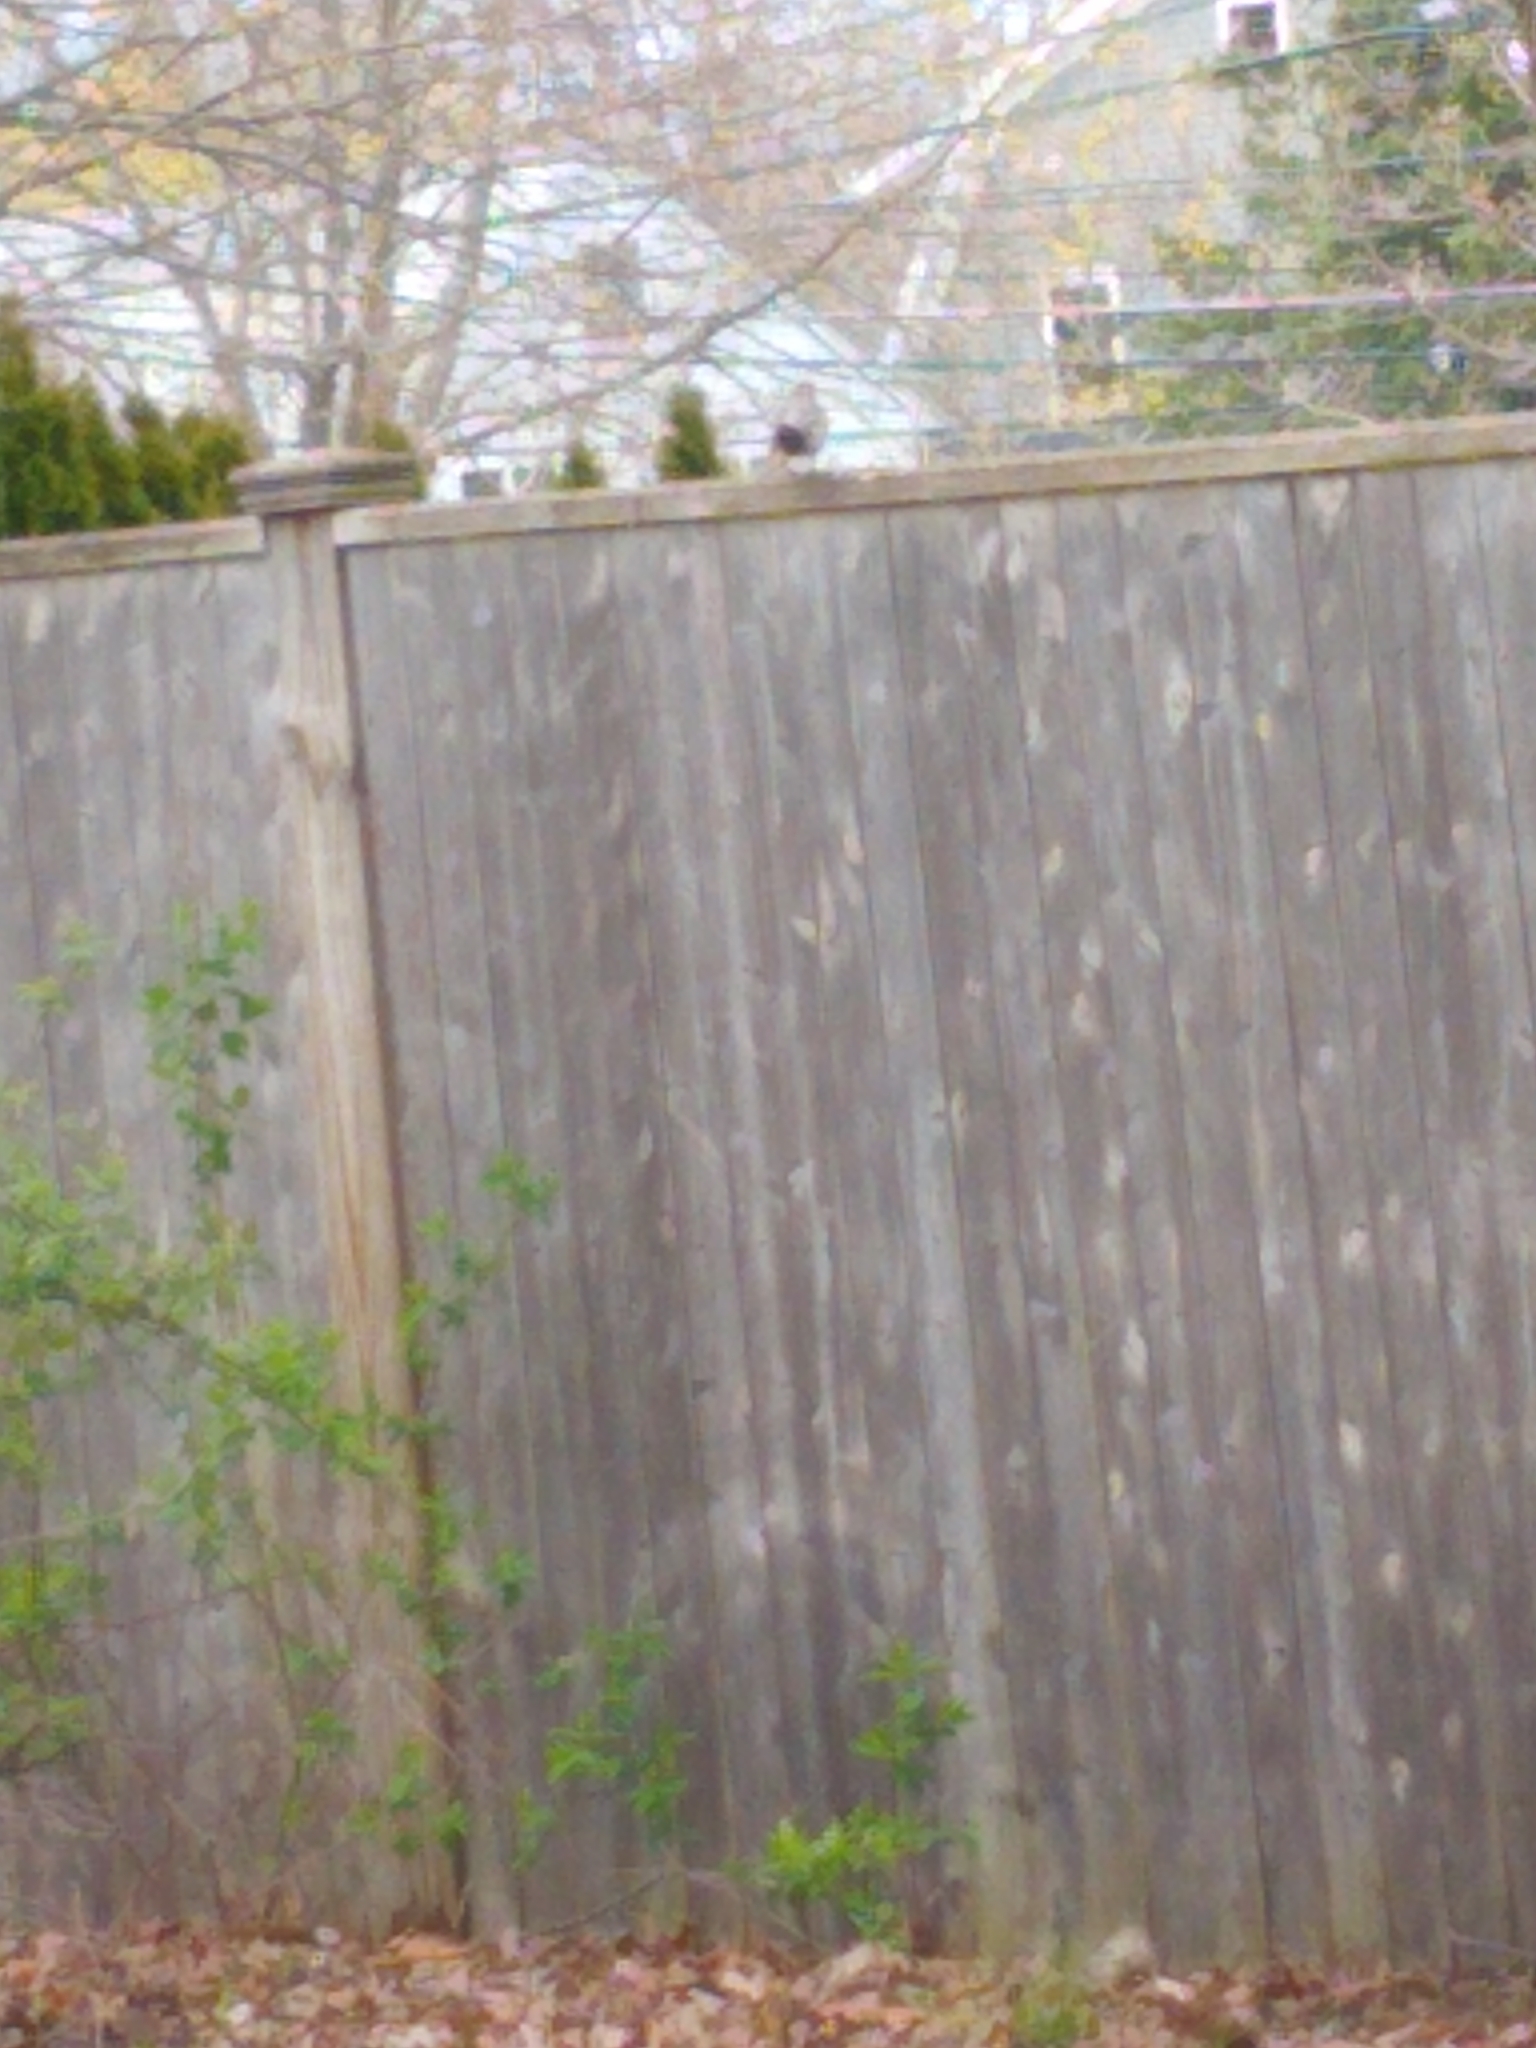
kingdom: Animalia
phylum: Chordata
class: Aves
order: Passeriformes
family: Turdidae
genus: Turdus
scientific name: Turdus migratorius
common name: American robin
